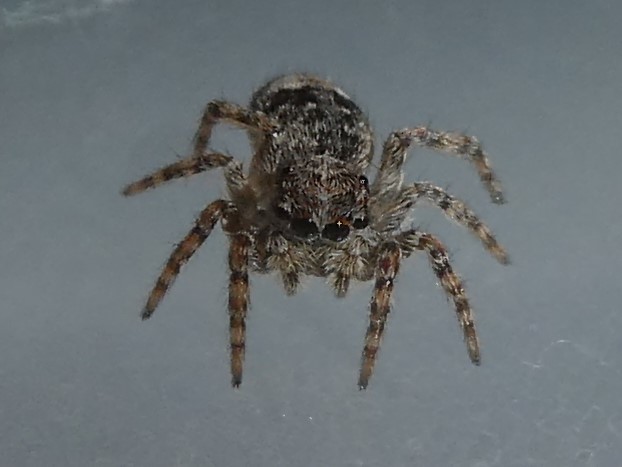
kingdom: Animalia
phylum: Arthropoda
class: Arachnida
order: Araneae
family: Salticidae
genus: Attulus
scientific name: Attulus fasciger
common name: Asiatic wall jumping spider
